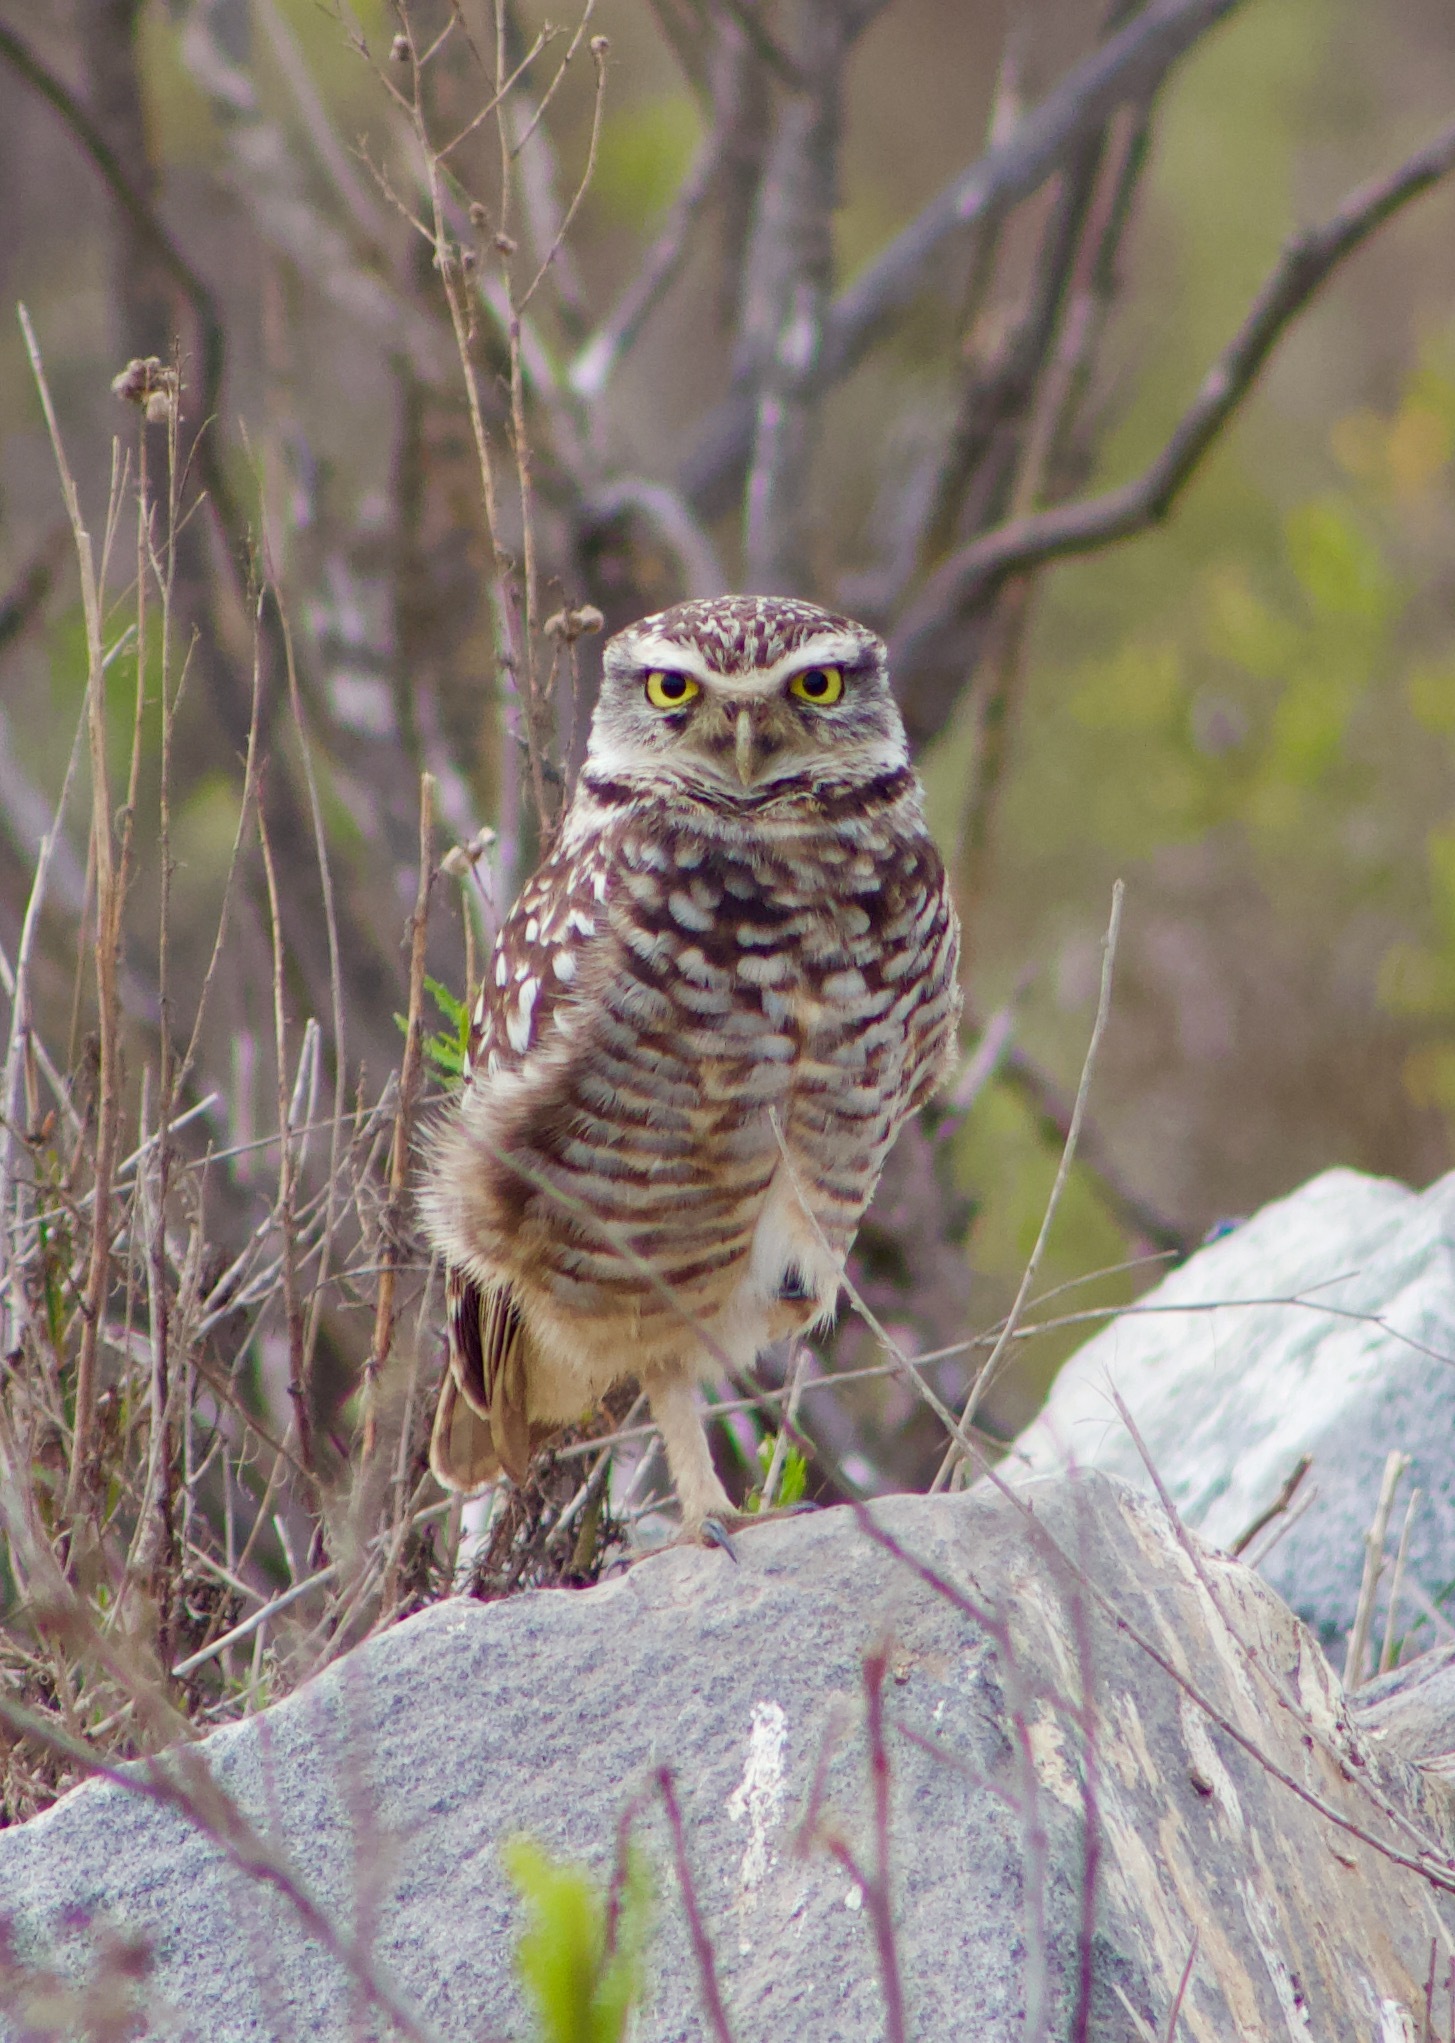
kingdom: Animalia
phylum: Chordata
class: Aves
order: Strigiformes
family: Strigidae
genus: Athene
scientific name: Athene cunicularia
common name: Burrowing owl
